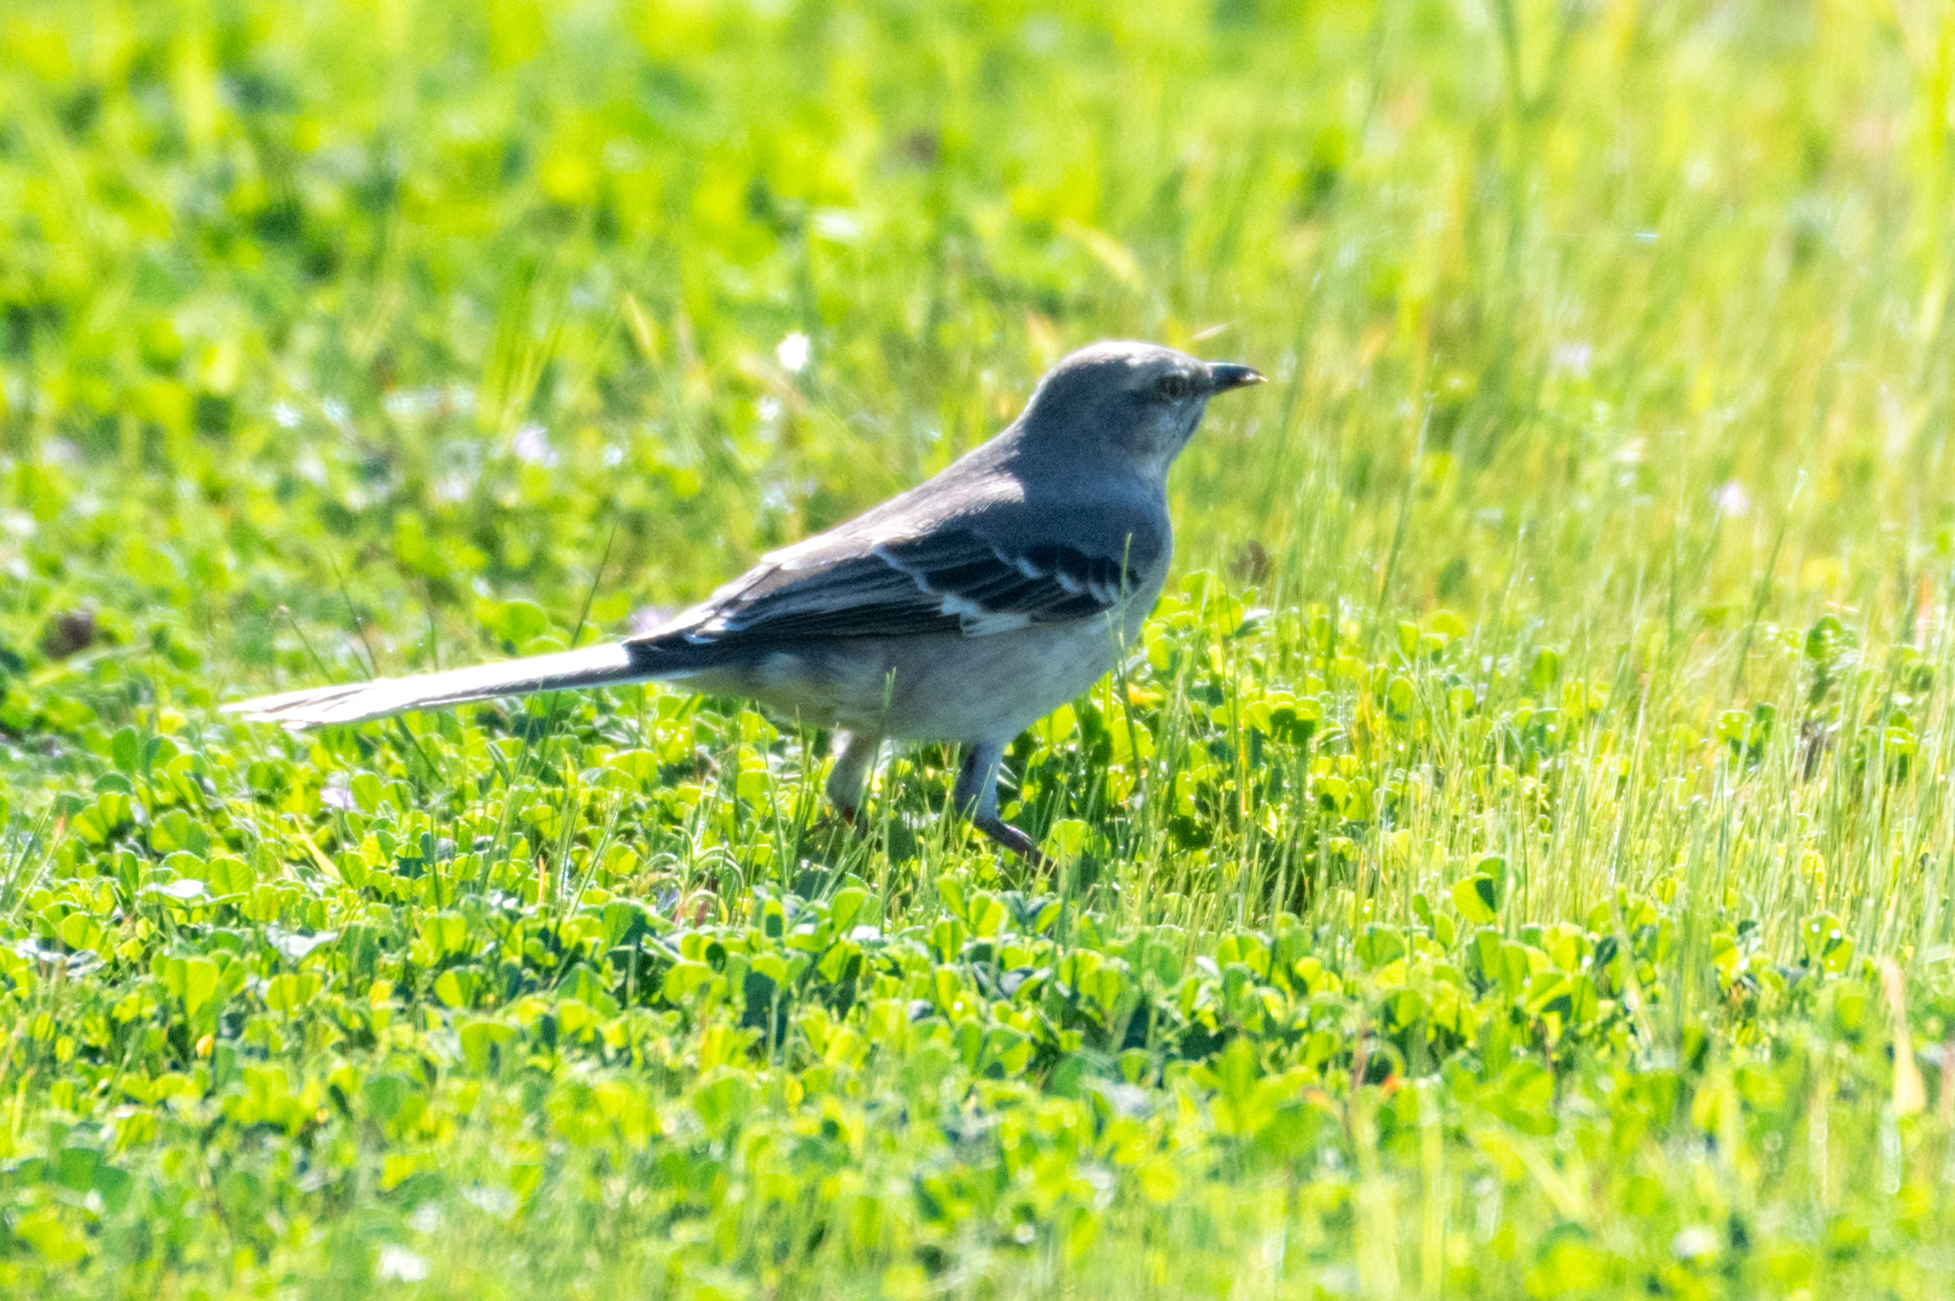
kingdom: Animalia
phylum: Chordata
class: Aves
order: Passeriformes
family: Mimidae
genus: Mimus
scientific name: Mimus polyglottos
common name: Northern mockingbird
